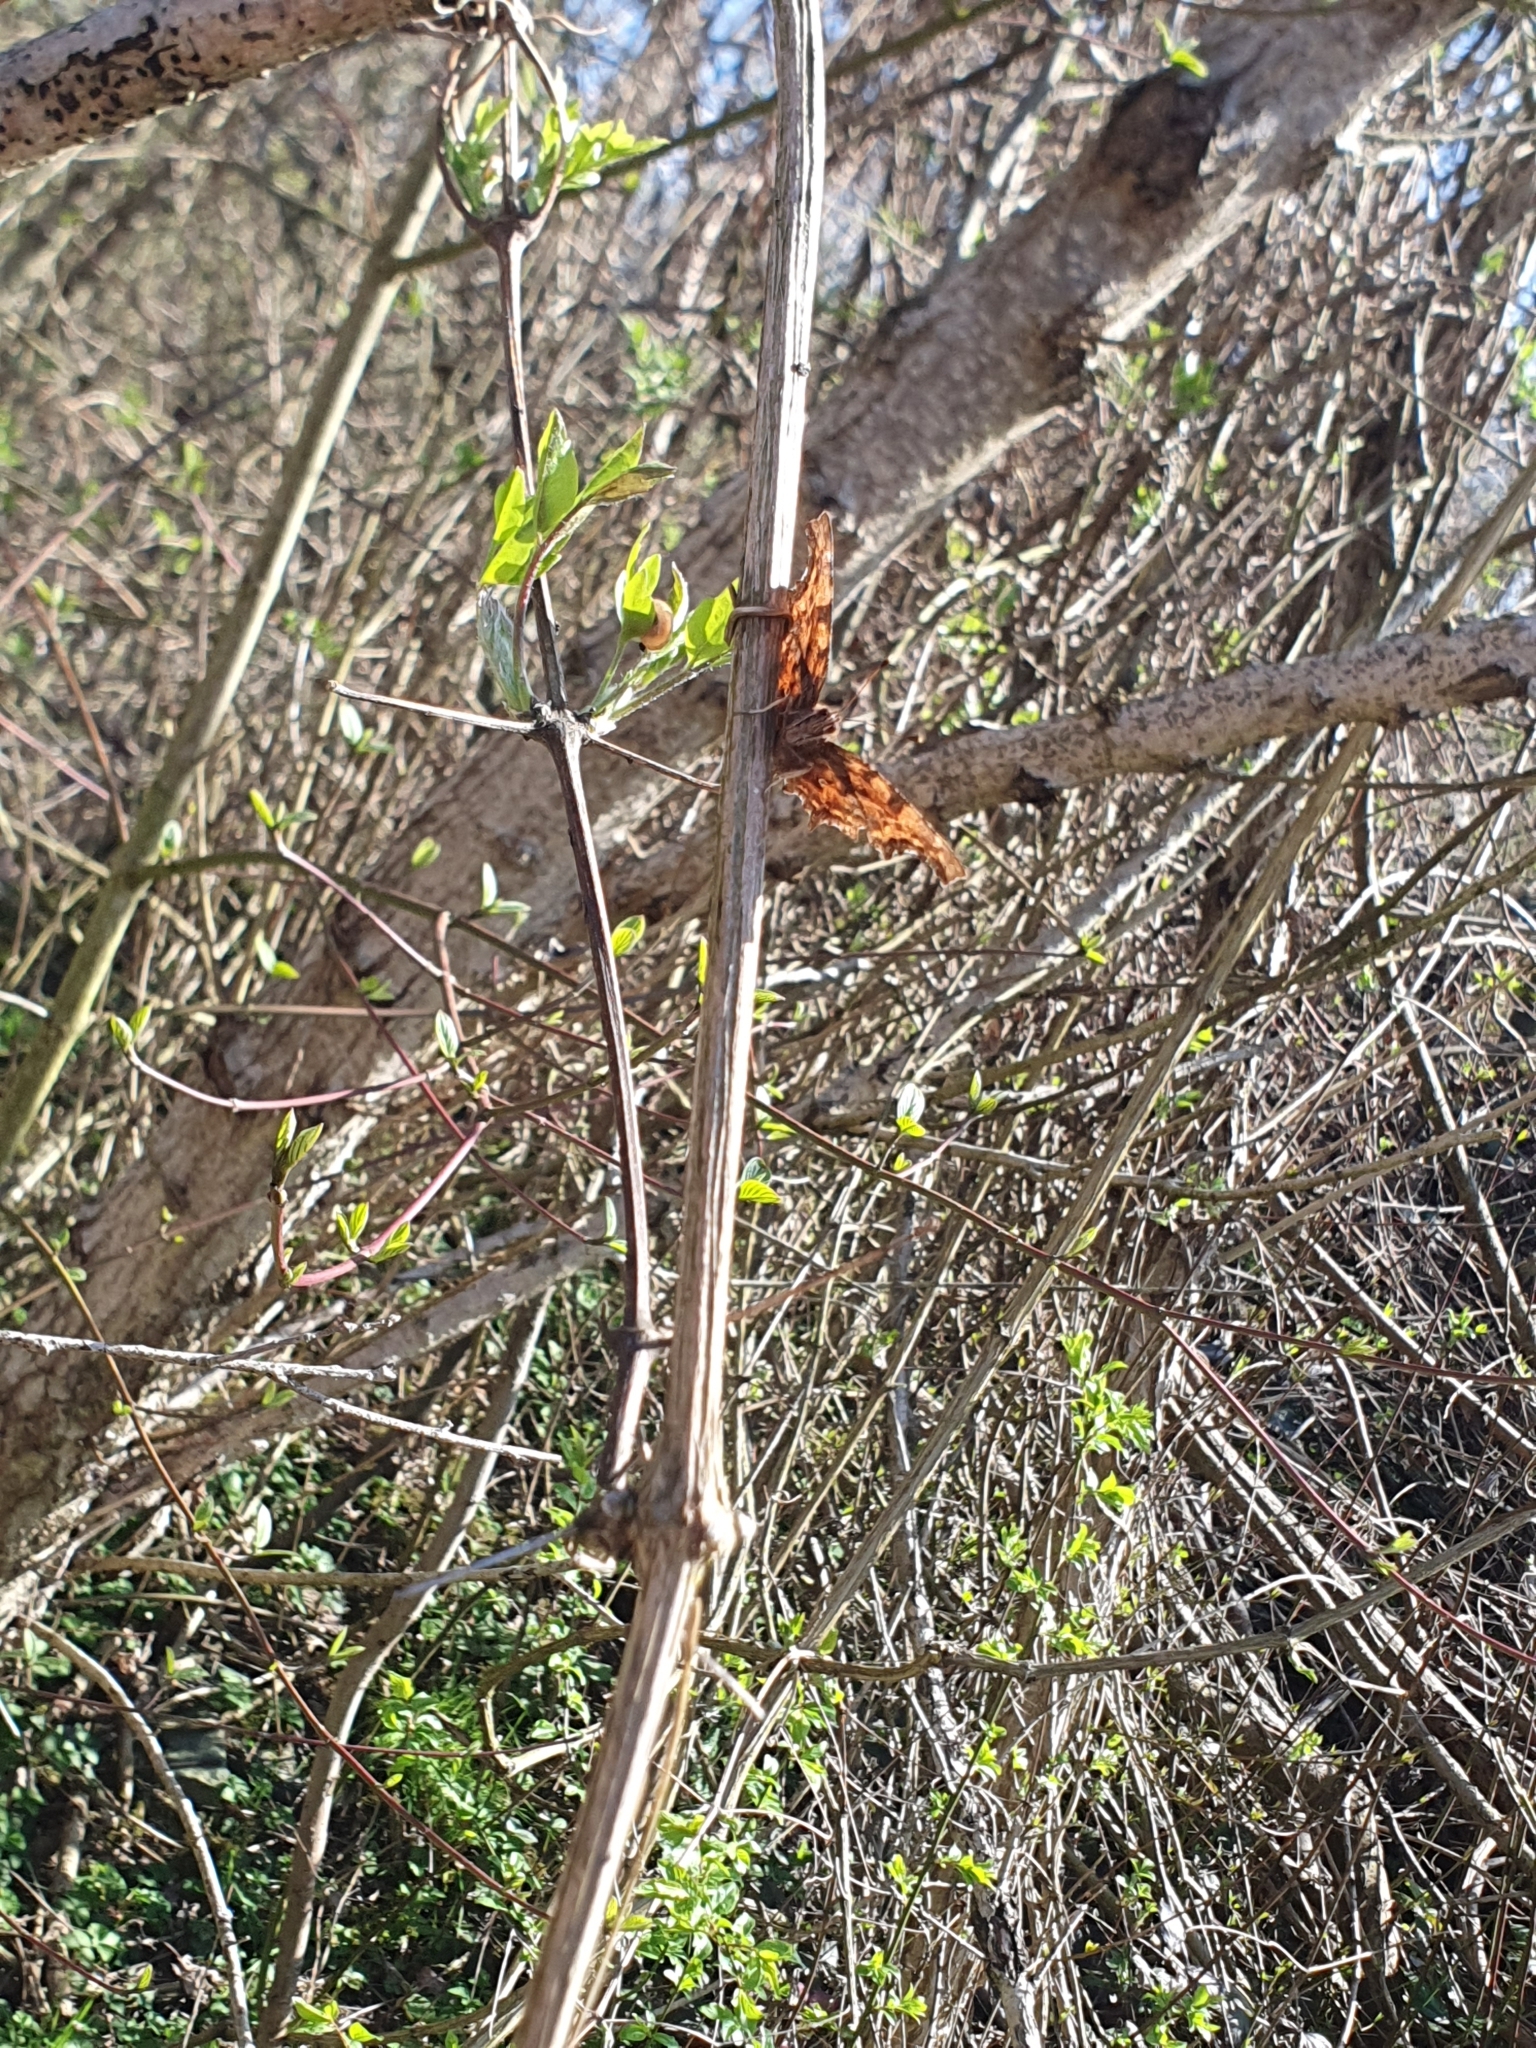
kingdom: Animalia
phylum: Arthropoda
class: Insecta
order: Lepidoptera
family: Nymphalidae
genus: Polygonia
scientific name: Polygonia c-album
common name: Comma
